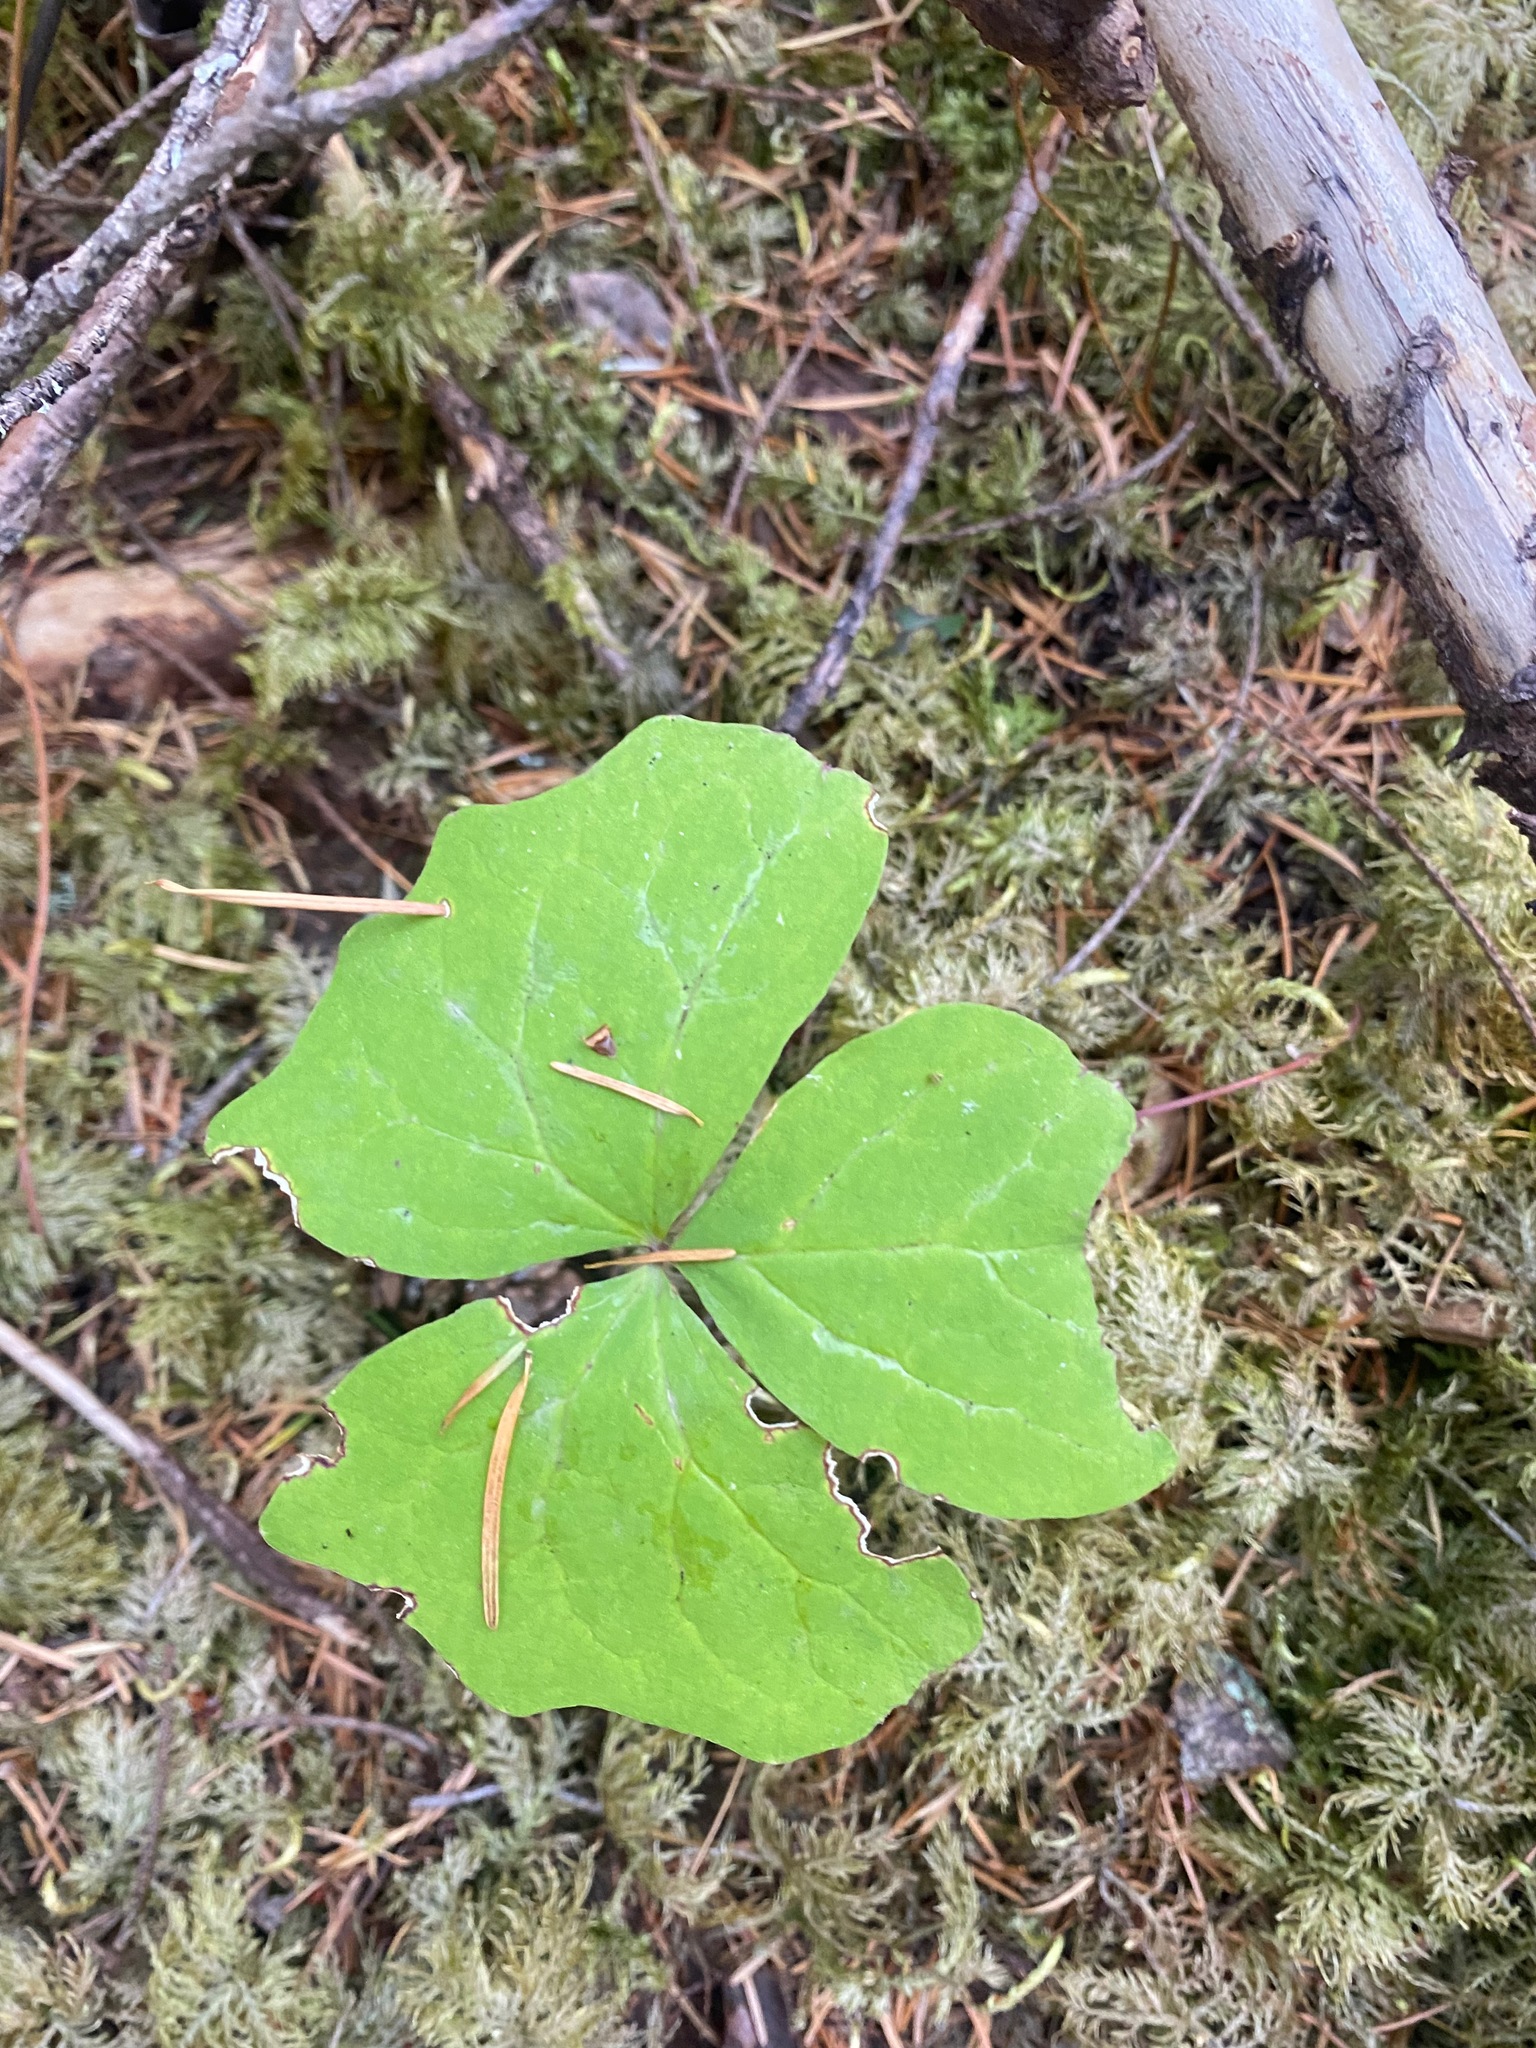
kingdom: Plantae
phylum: Tracheophyta
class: Magnoliopsida
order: Ranunculales
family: Berberidaceae
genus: Achlys
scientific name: Achlys triphylla
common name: Vanilla-leaf
